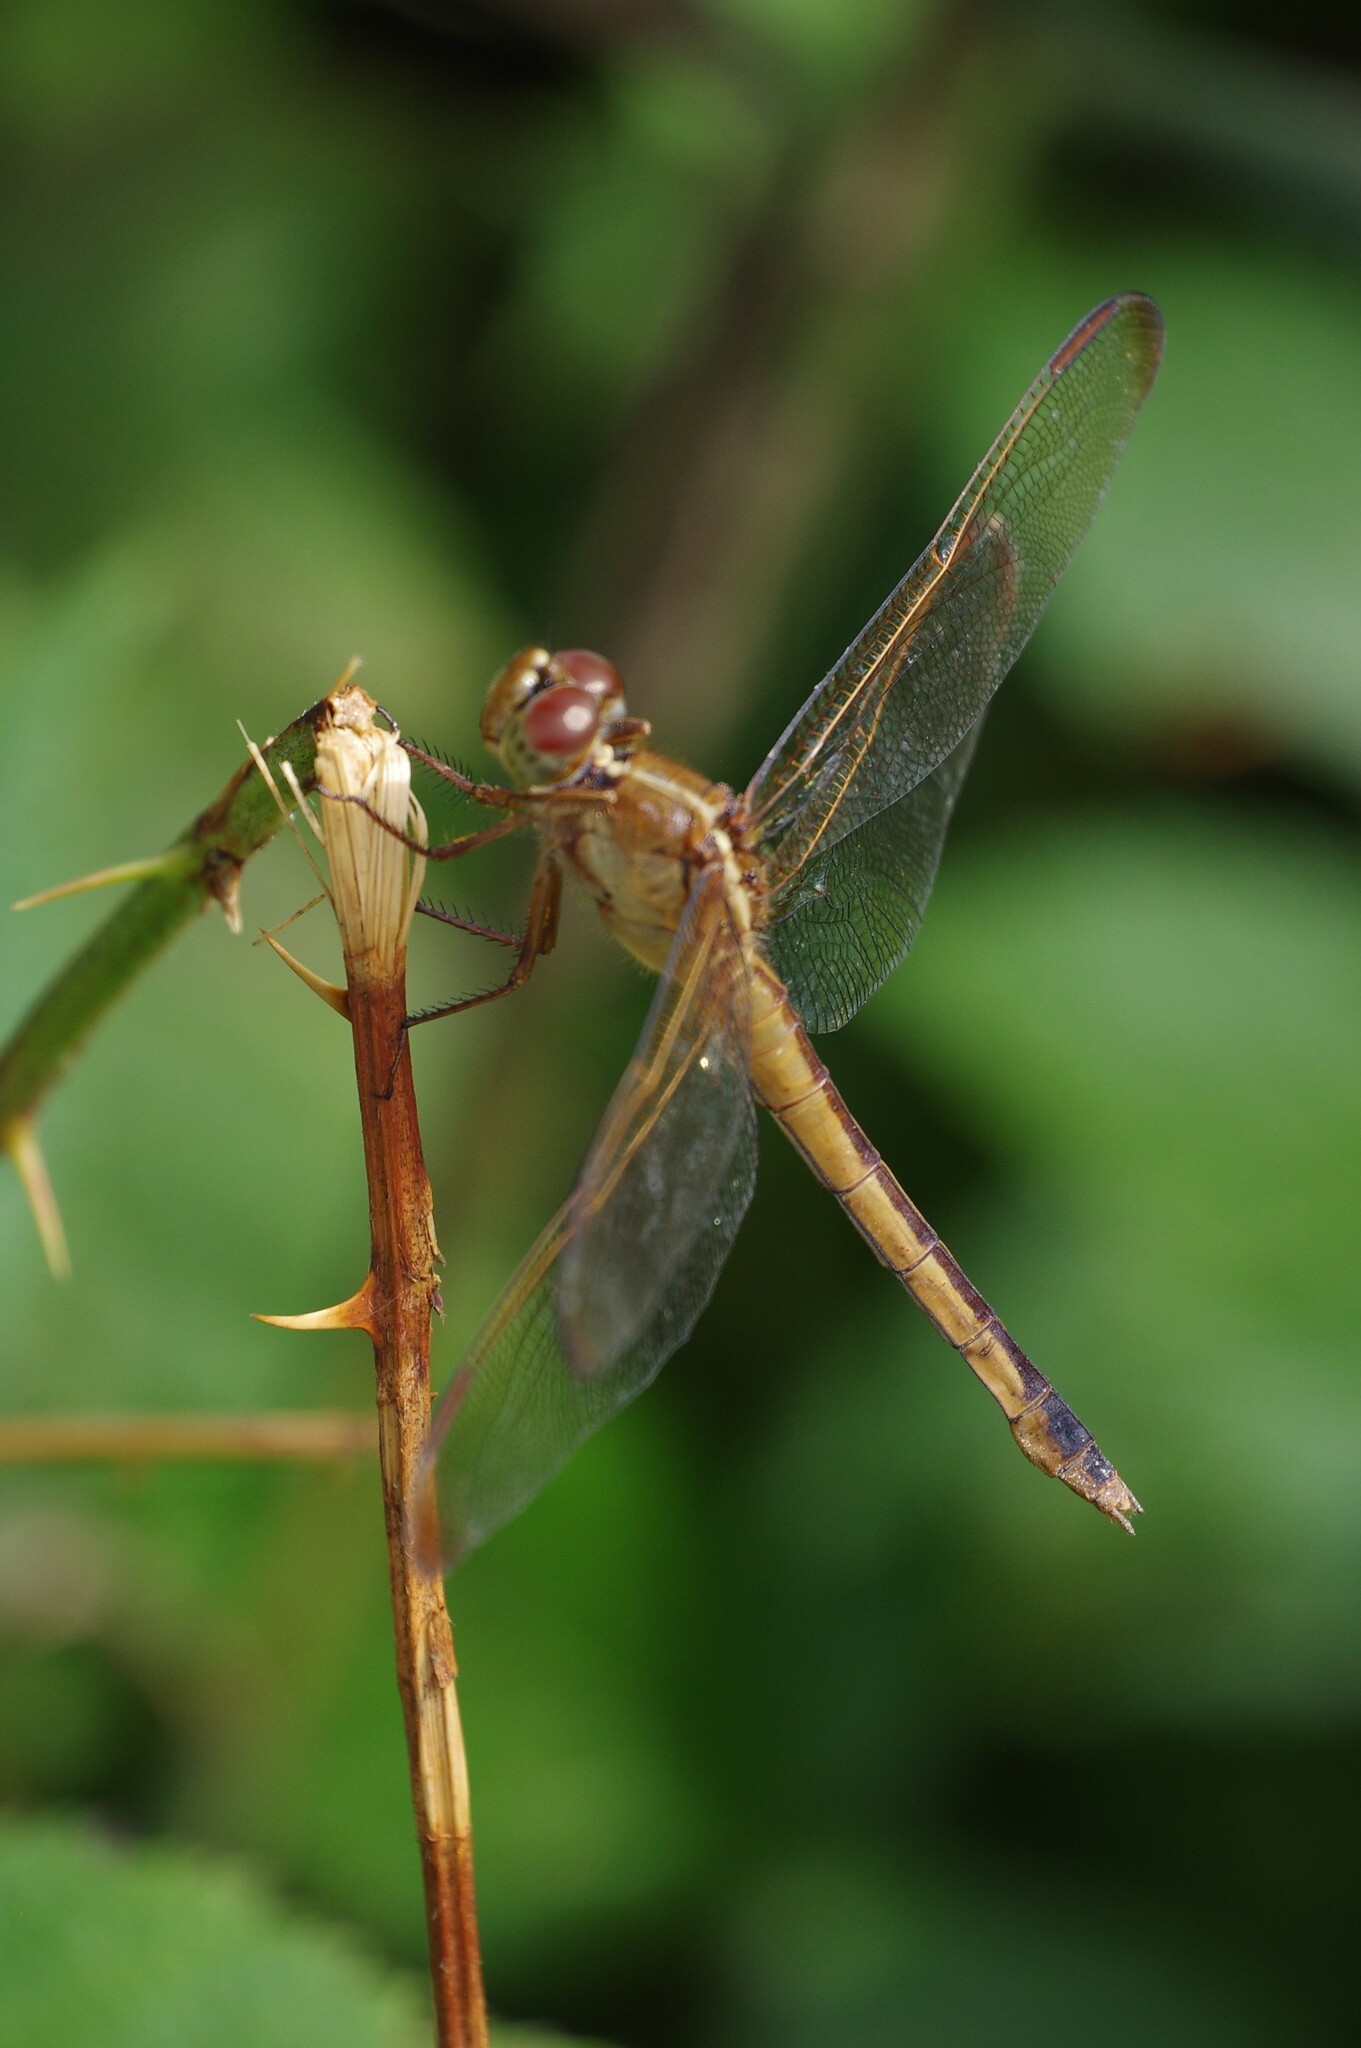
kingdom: Animalia
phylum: Arthropoda
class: Insecta
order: Odonata
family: Libellulidae
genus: Libellula
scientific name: Libellula needhami
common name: Needham's skimmer
